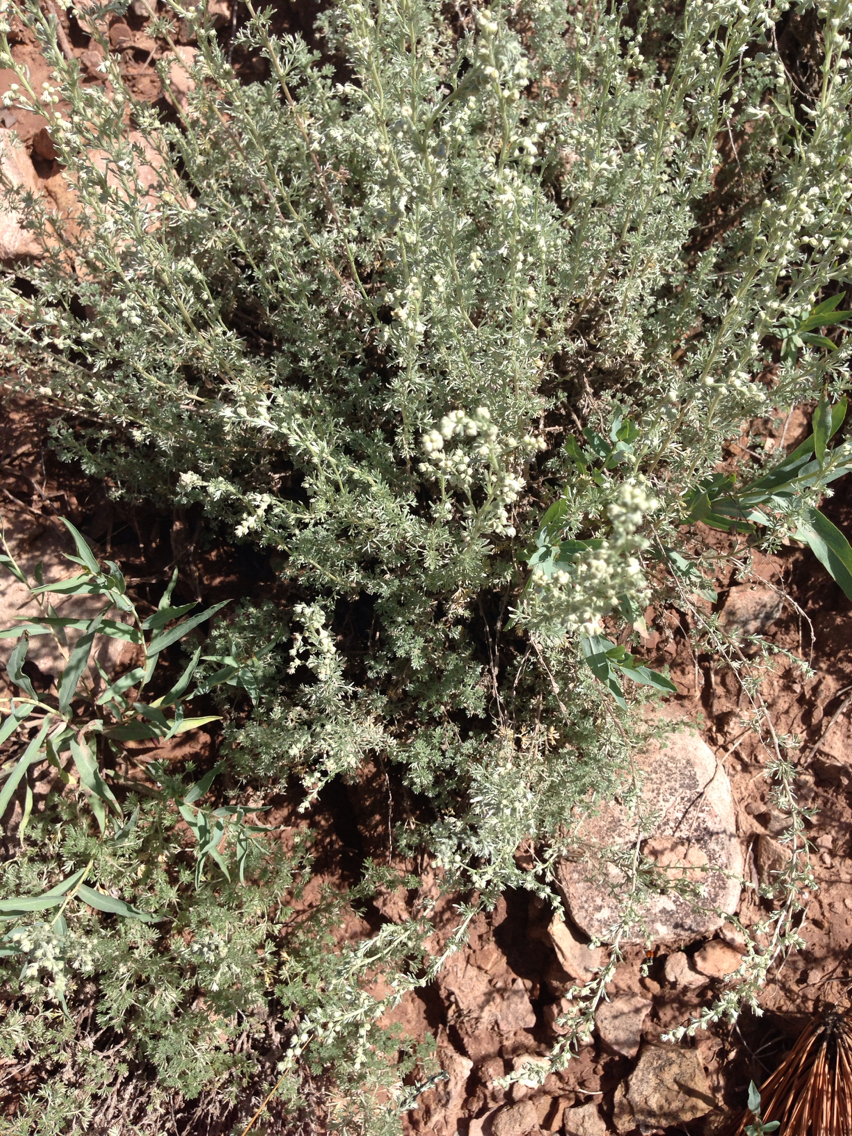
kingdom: Plantae
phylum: Tracheophyta
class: Magnoliopsida
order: Asterales
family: Asteraceae
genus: Artemisia
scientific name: Artemisia frigida
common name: Prairie sagewort
